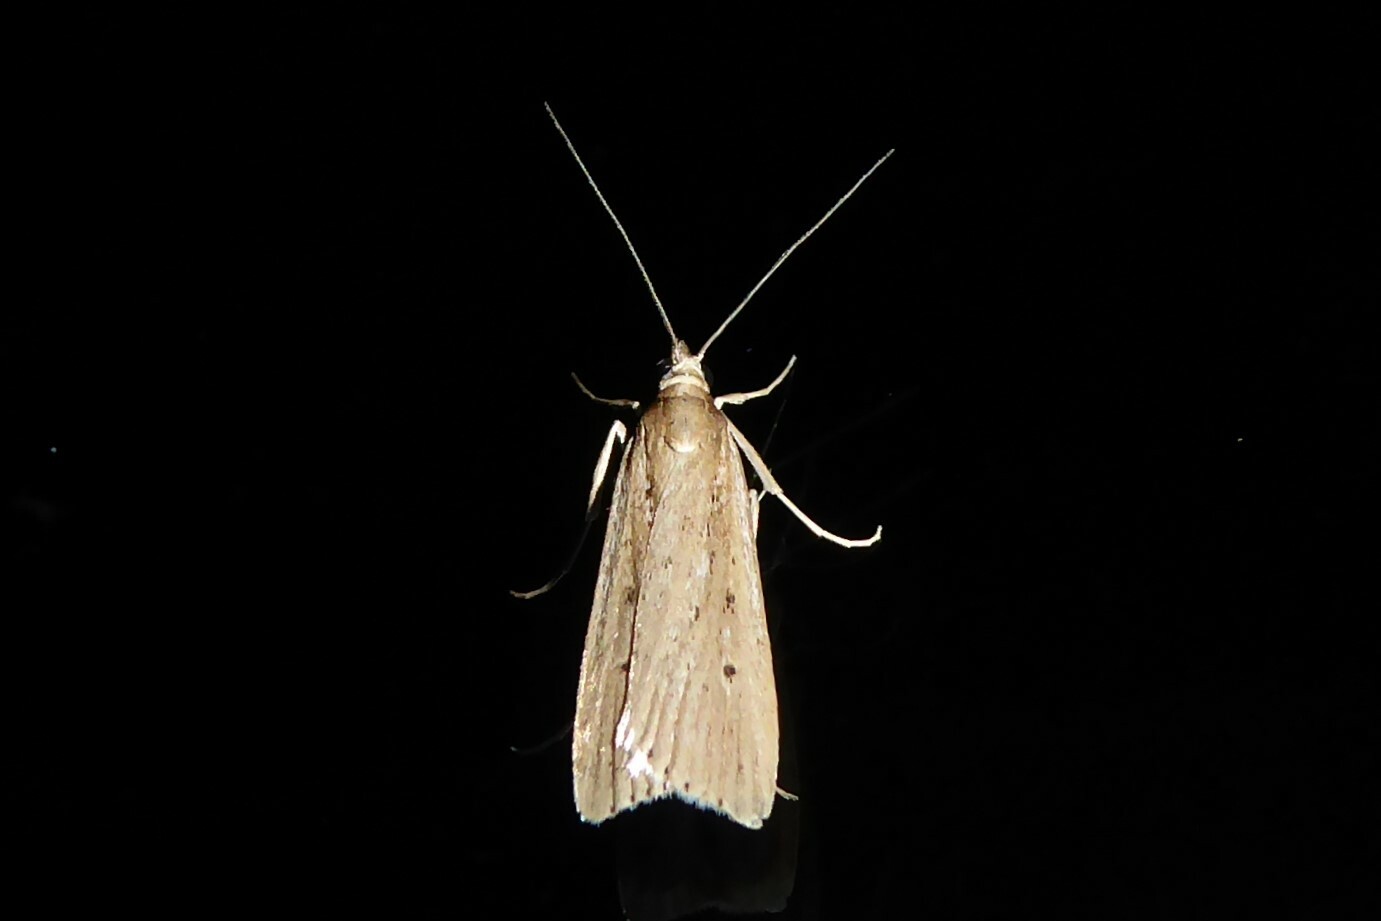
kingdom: Animalia
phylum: Arthropoda
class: Insecta
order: Lepidoptera
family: Crambidae
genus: Eudonia
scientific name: Eudonia sabulosella
